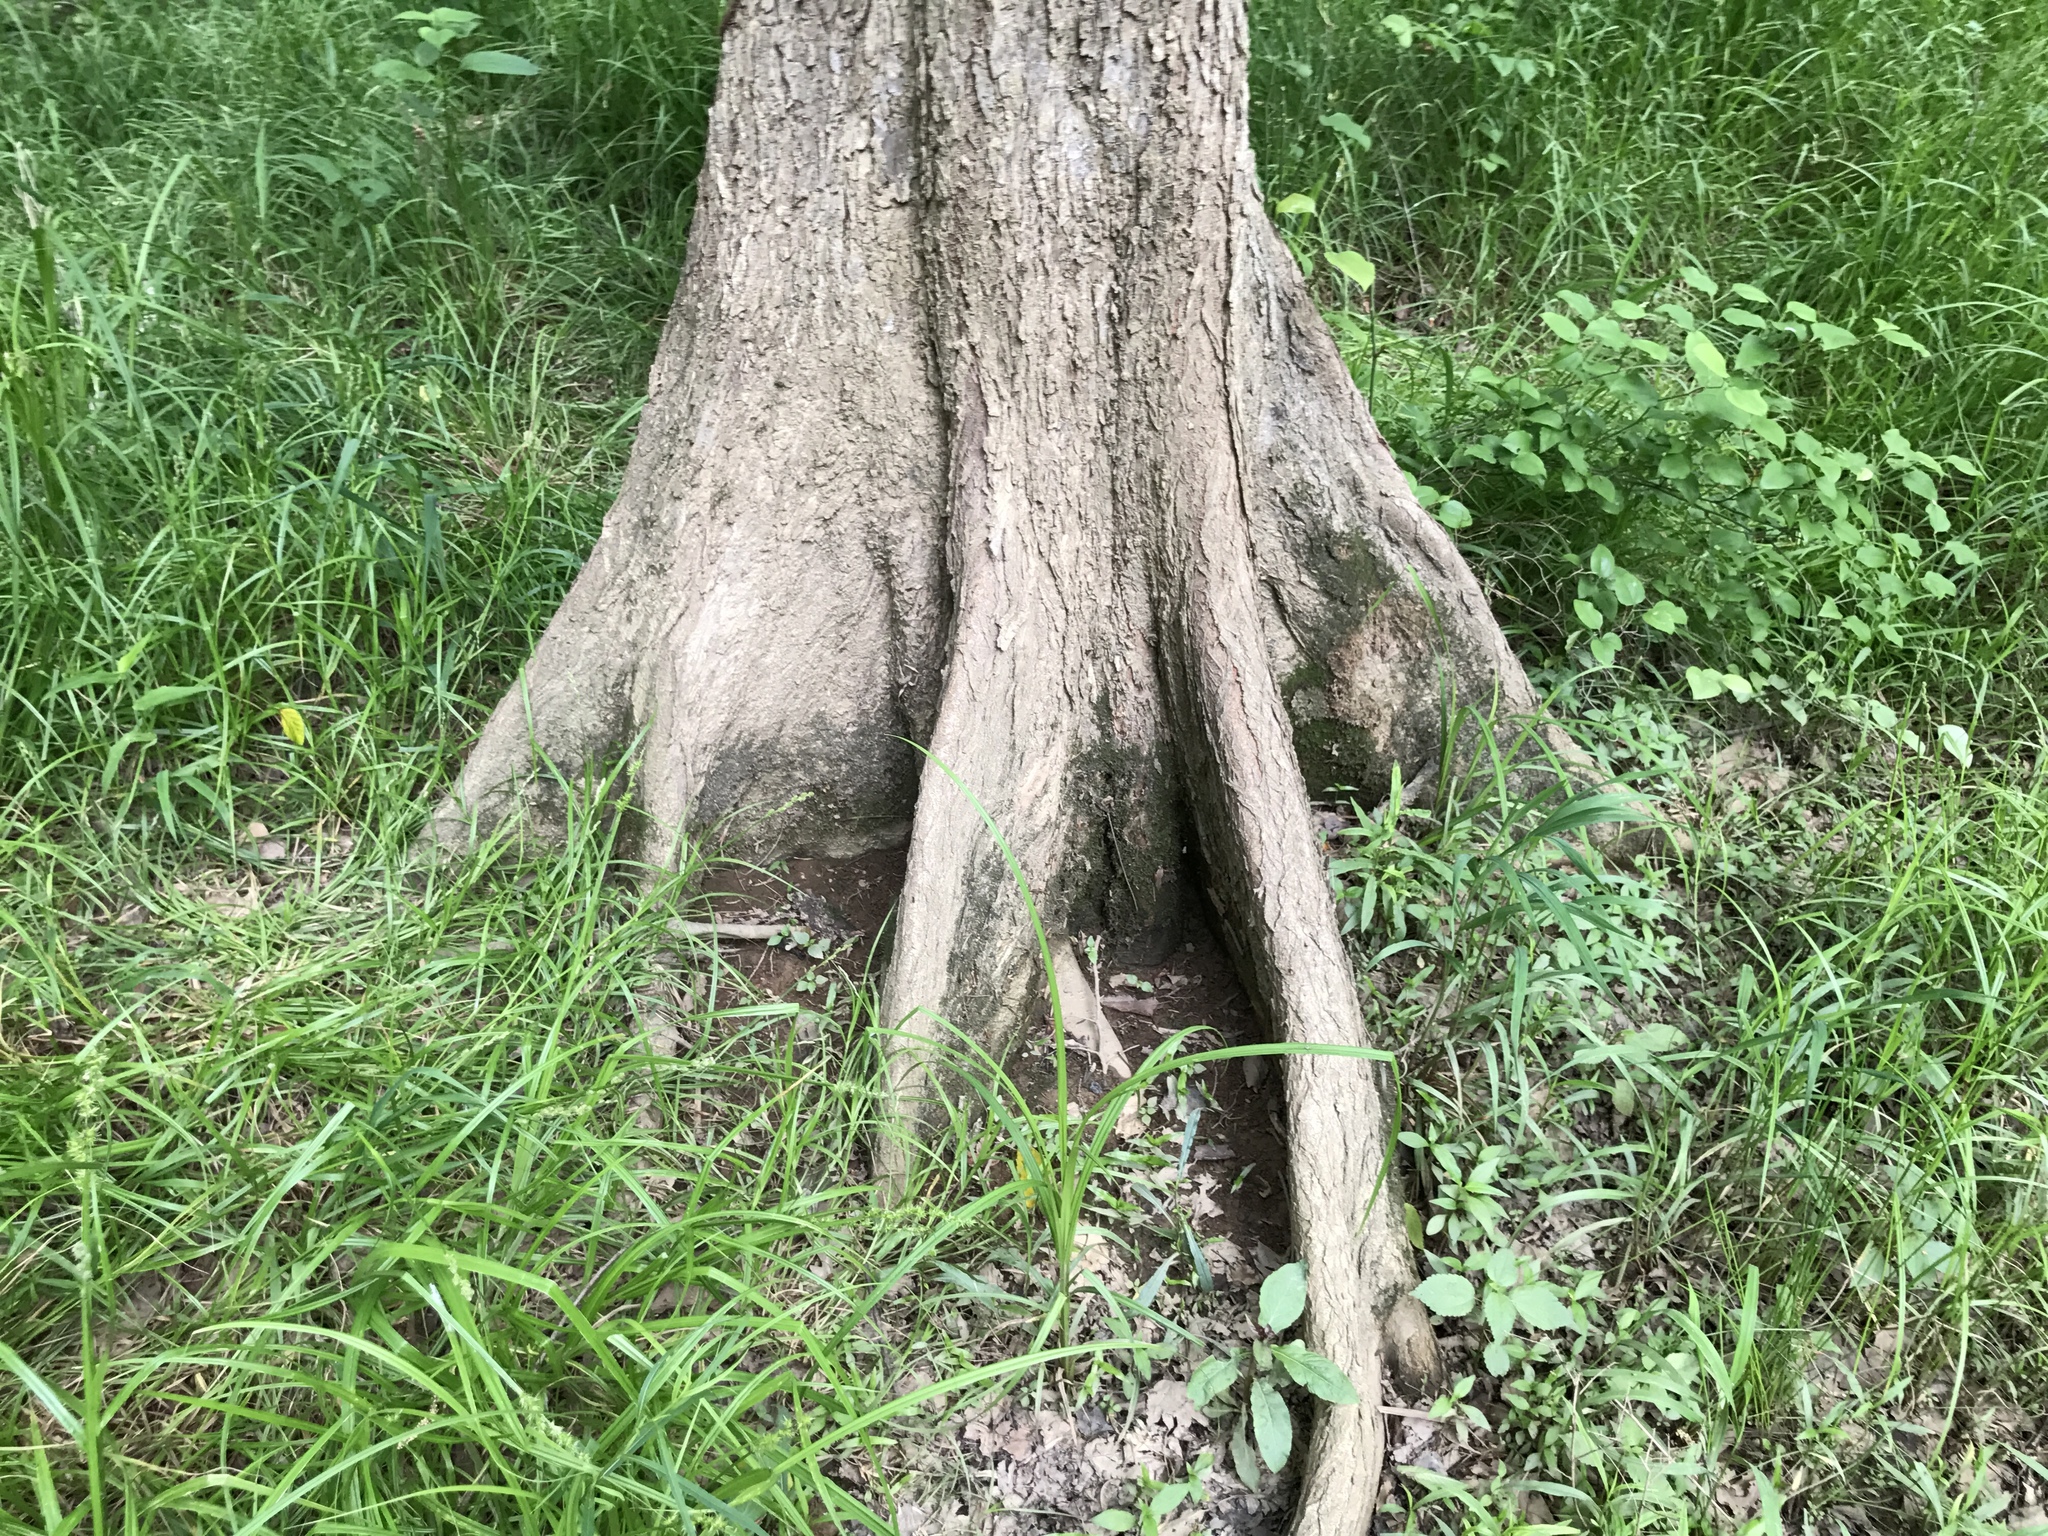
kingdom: Plantae
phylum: Tracheophyta
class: Magnoliopsida
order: Rosales
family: Ulmaceae
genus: Ulmus
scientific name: Ulmus americana
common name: American elm
